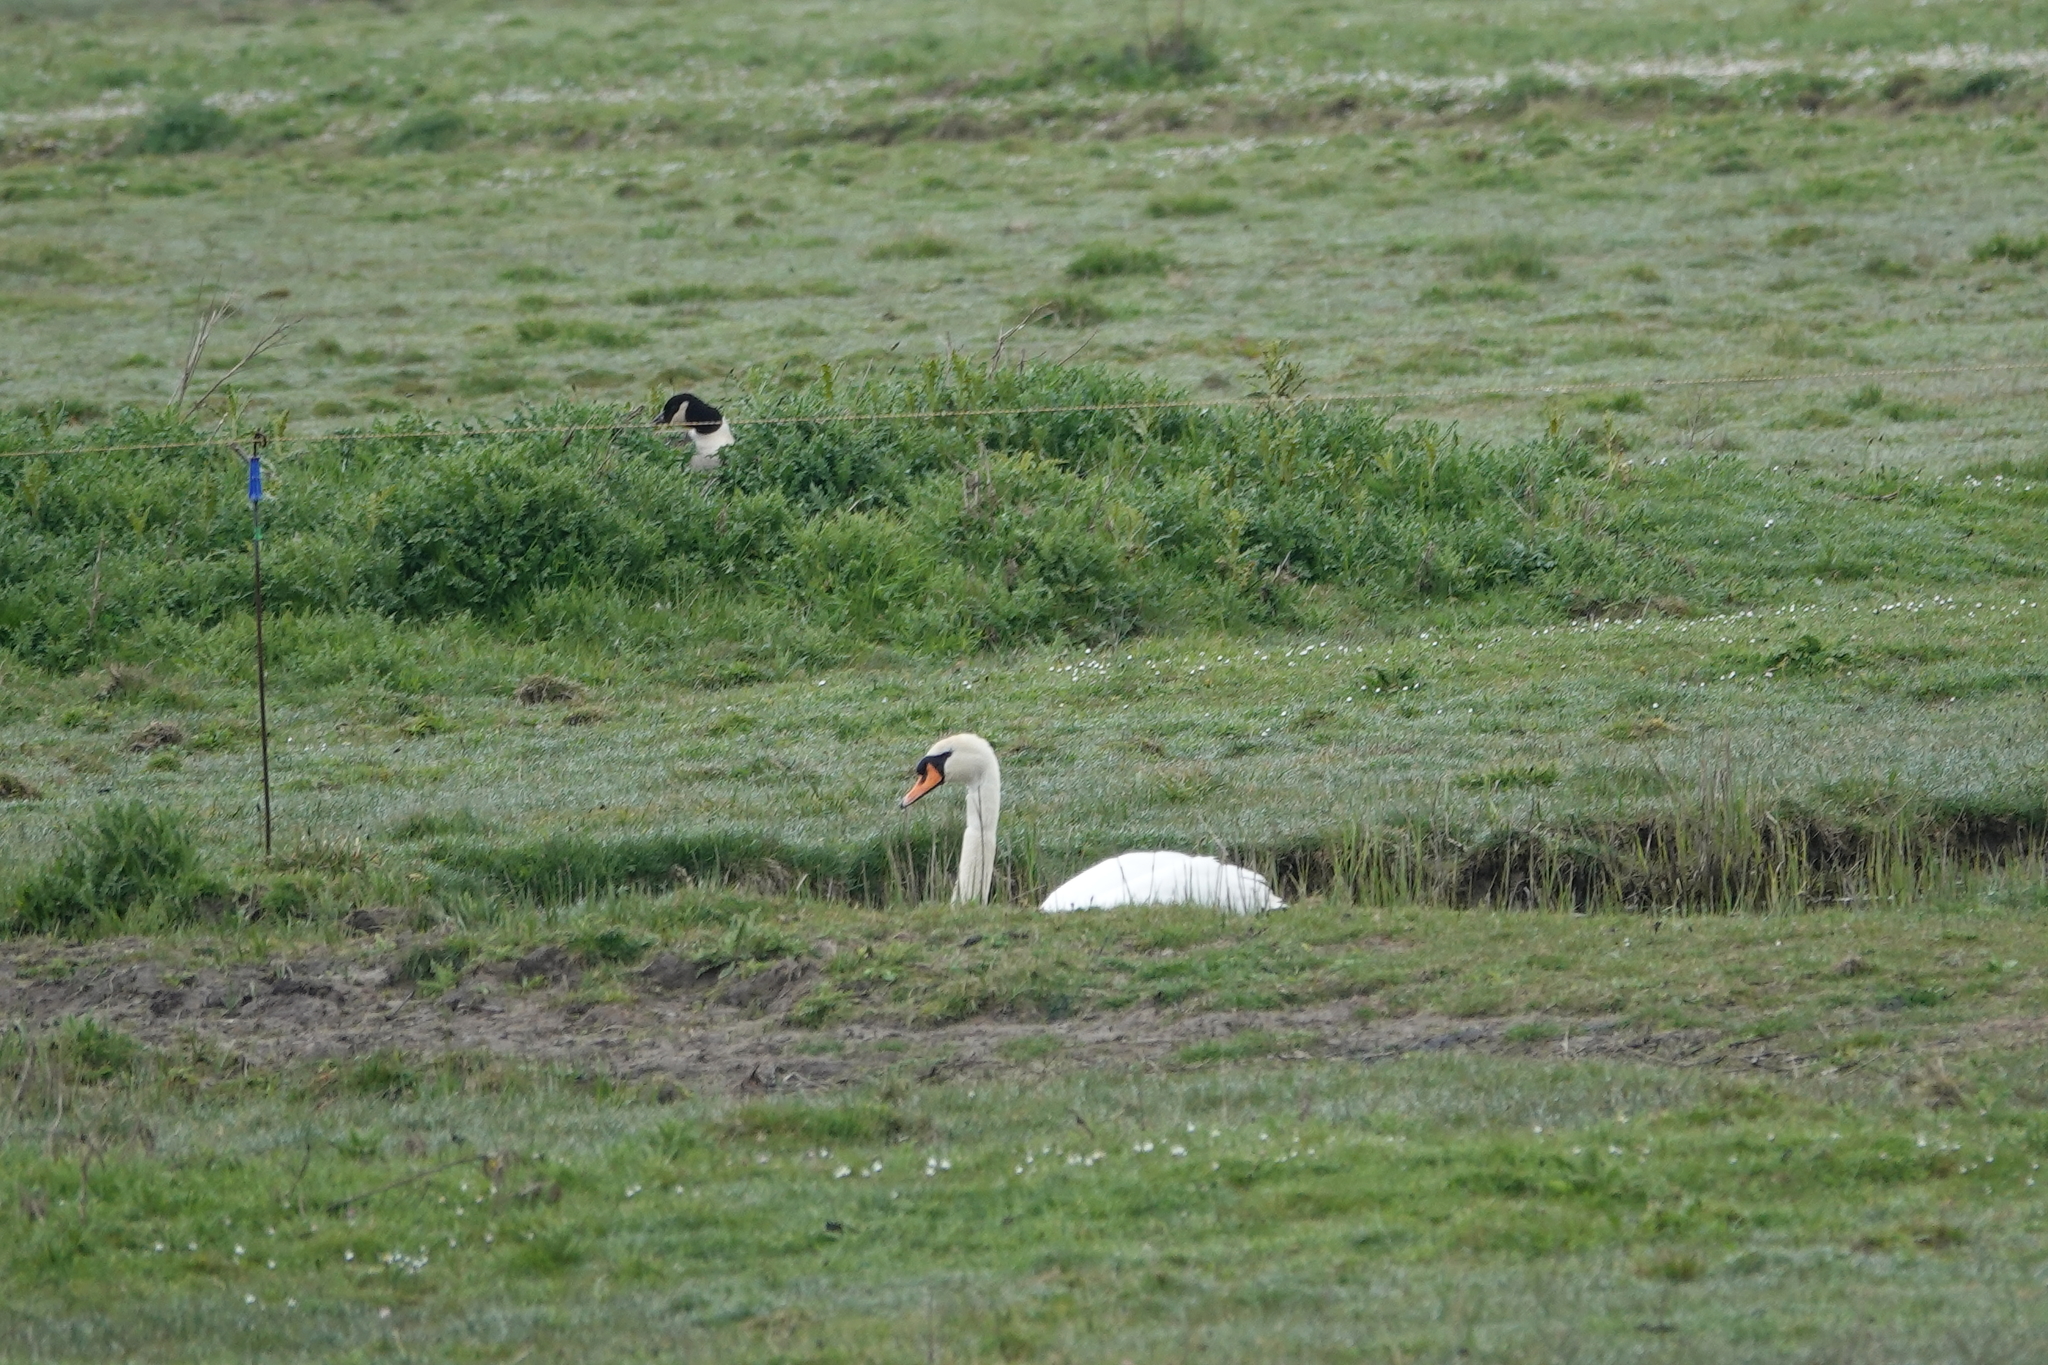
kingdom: Animalia
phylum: Chordata
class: Aves
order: Anseriformes
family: Anatidae
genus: Cygnus
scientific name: Cygnus olor
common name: Mute swan
